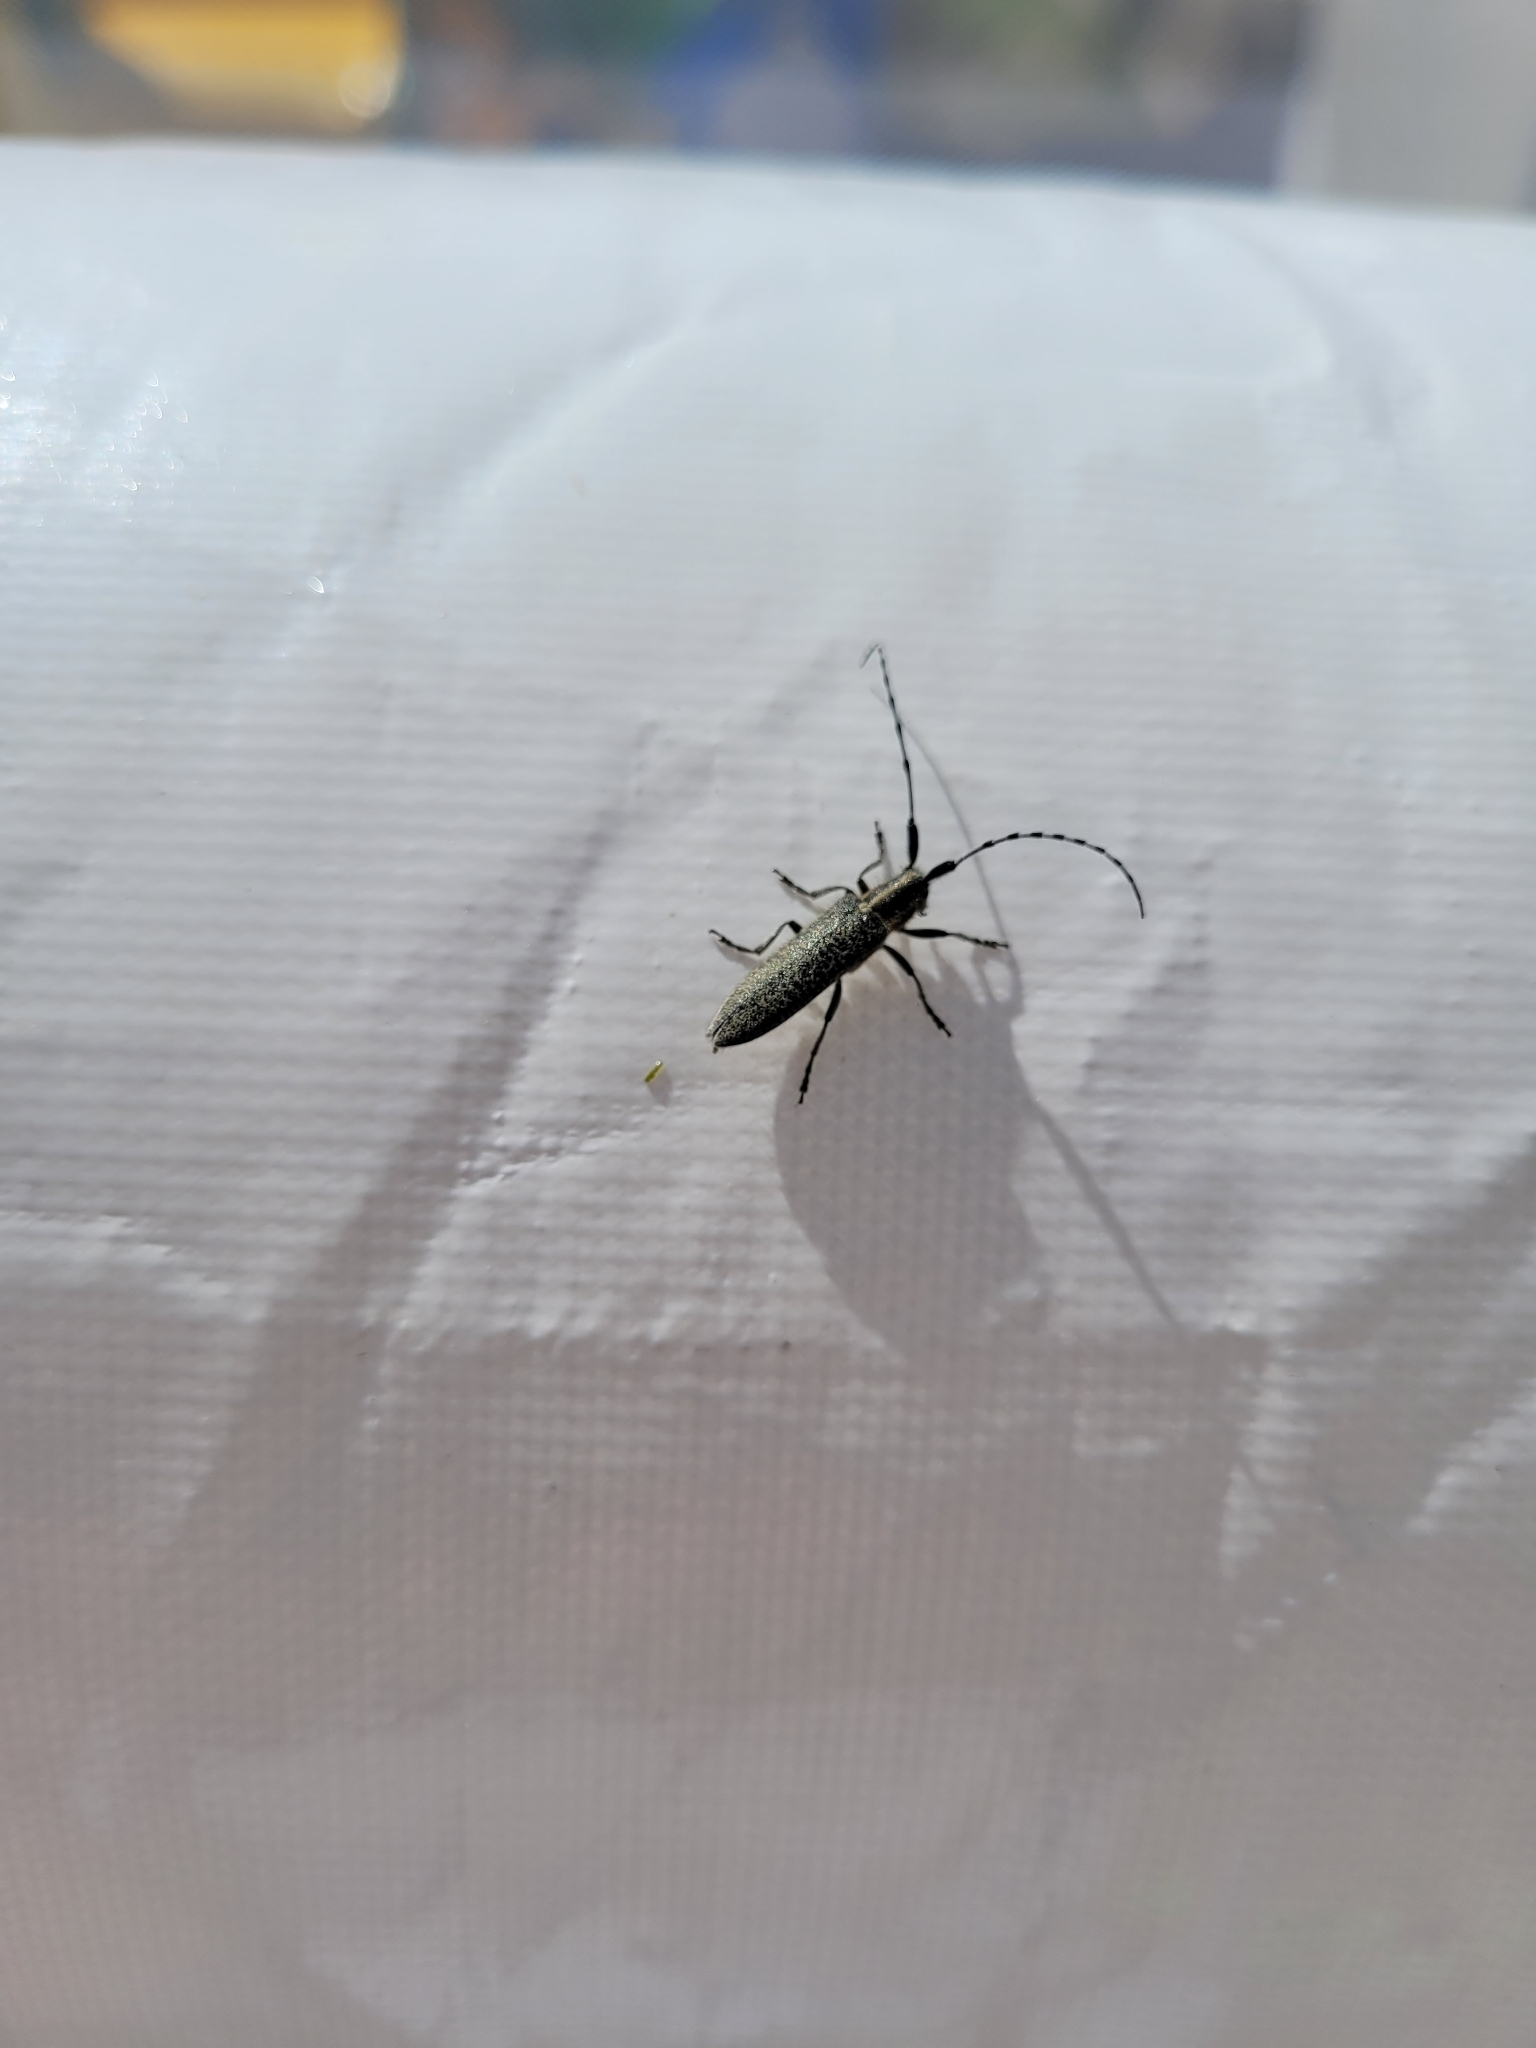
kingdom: Animalia
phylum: Arthropoda
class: Insecta
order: Coleoptera
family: Cerambycidae
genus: Agapanthia
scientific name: Agapanthia villosoviridescens
